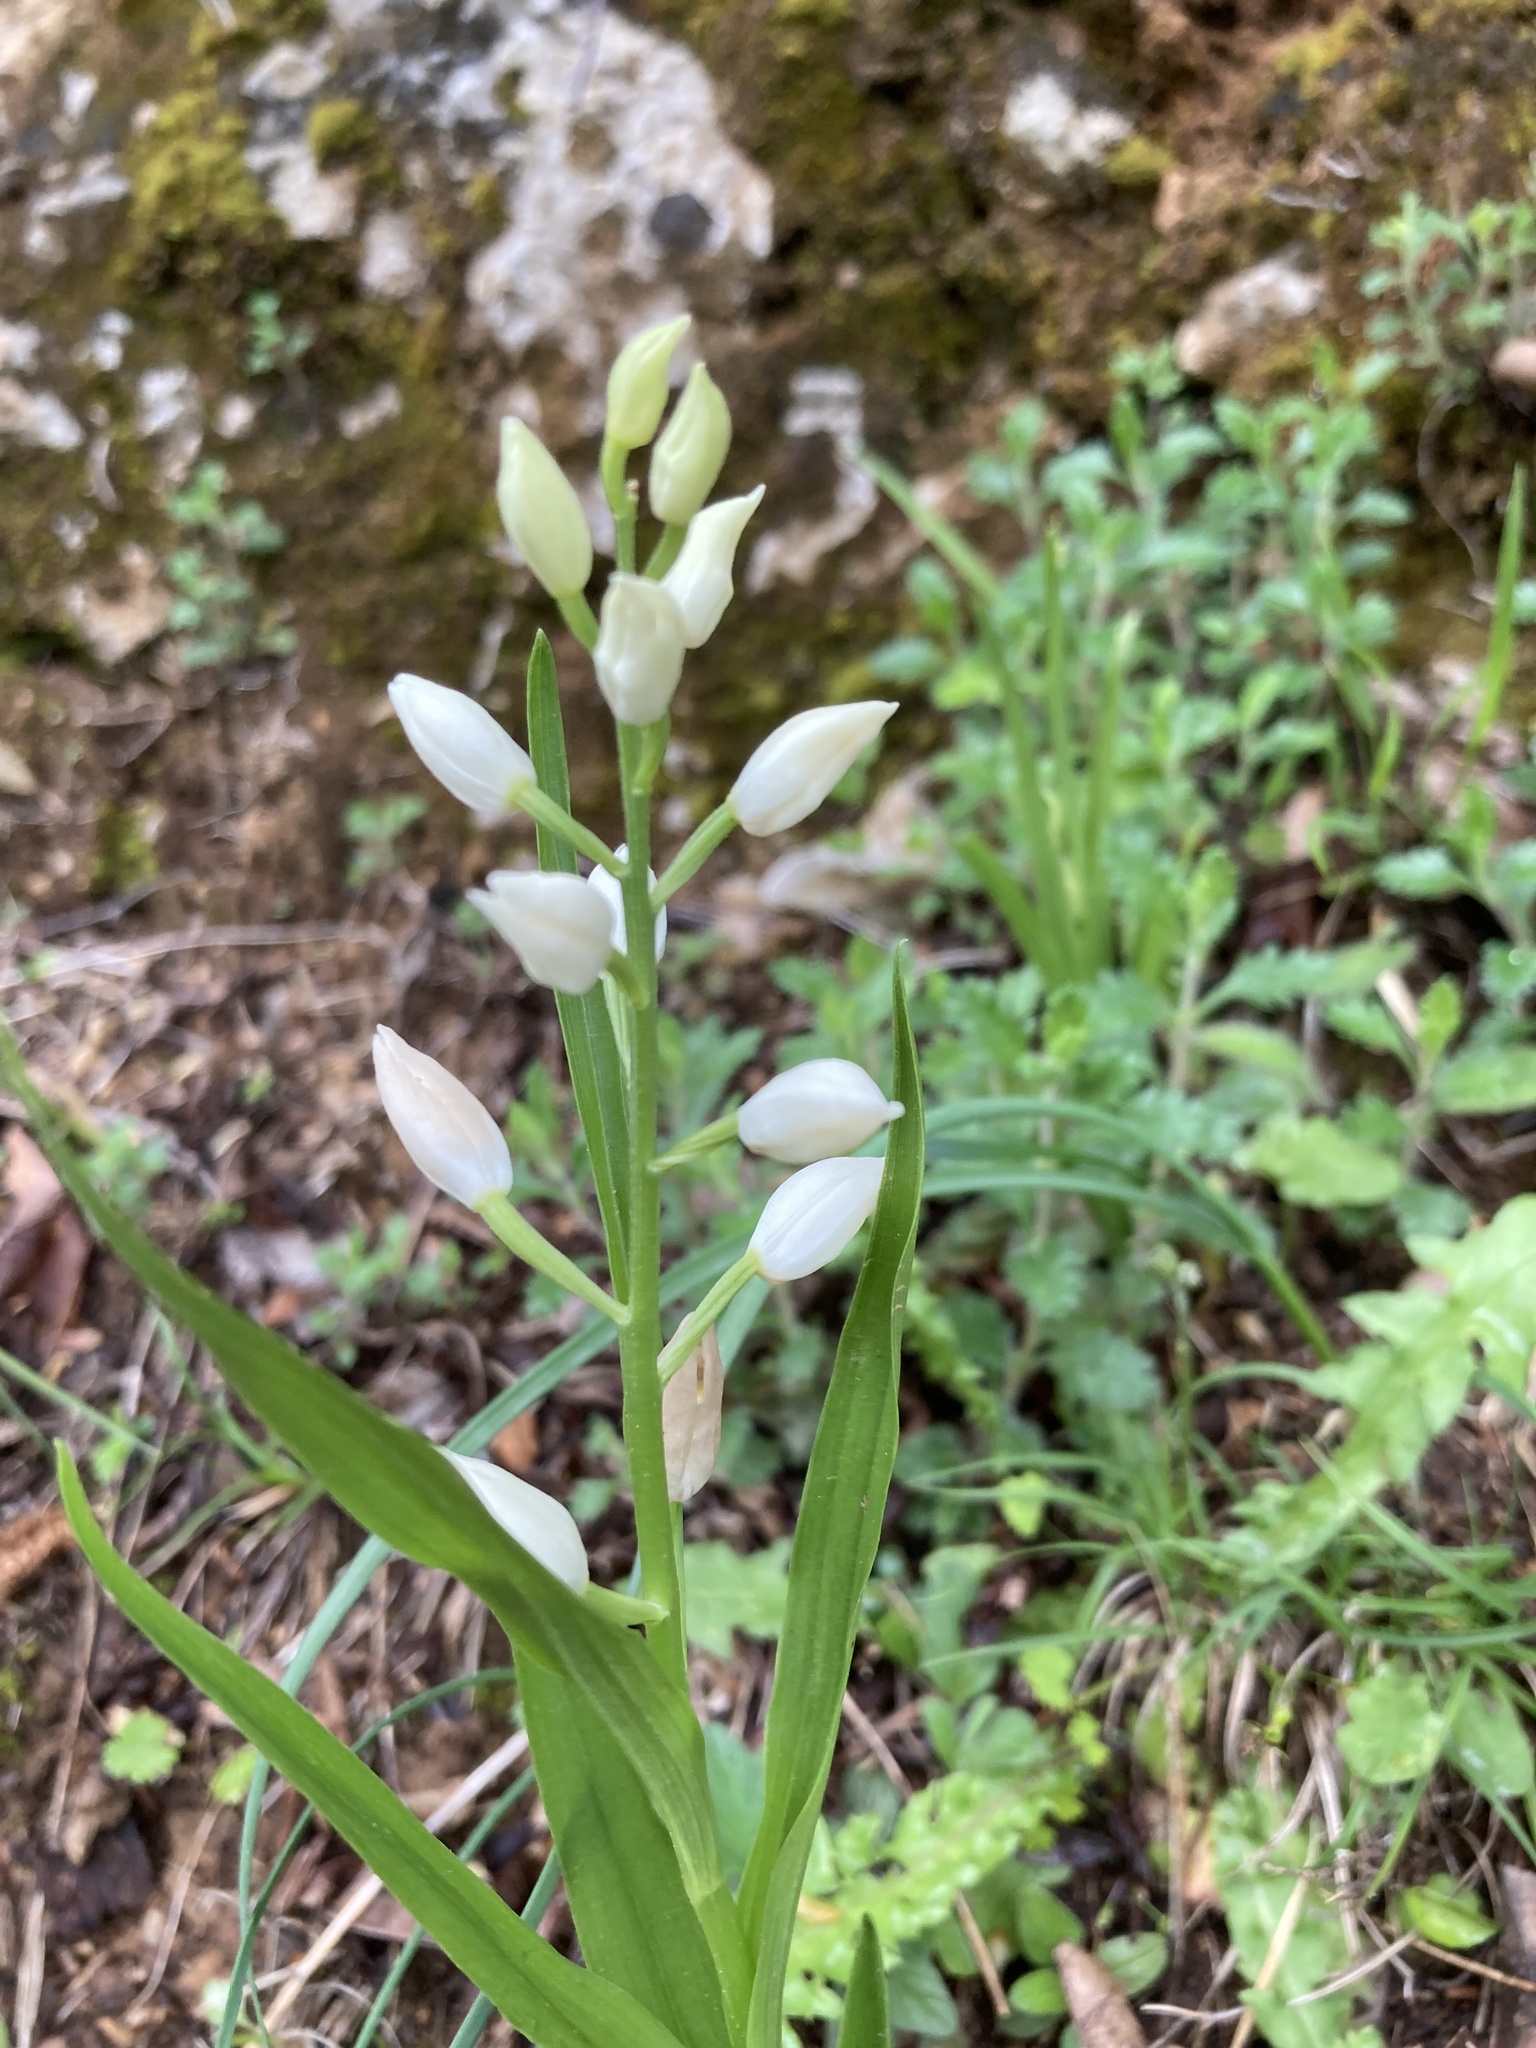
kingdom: Plantae
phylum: Tracheophyta
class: Liliopsida
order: Asparagales
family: Orchidaceae
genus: Cephalanthera
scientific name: Cephalanthera longifolia
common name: Narrow-leaved helleborine
